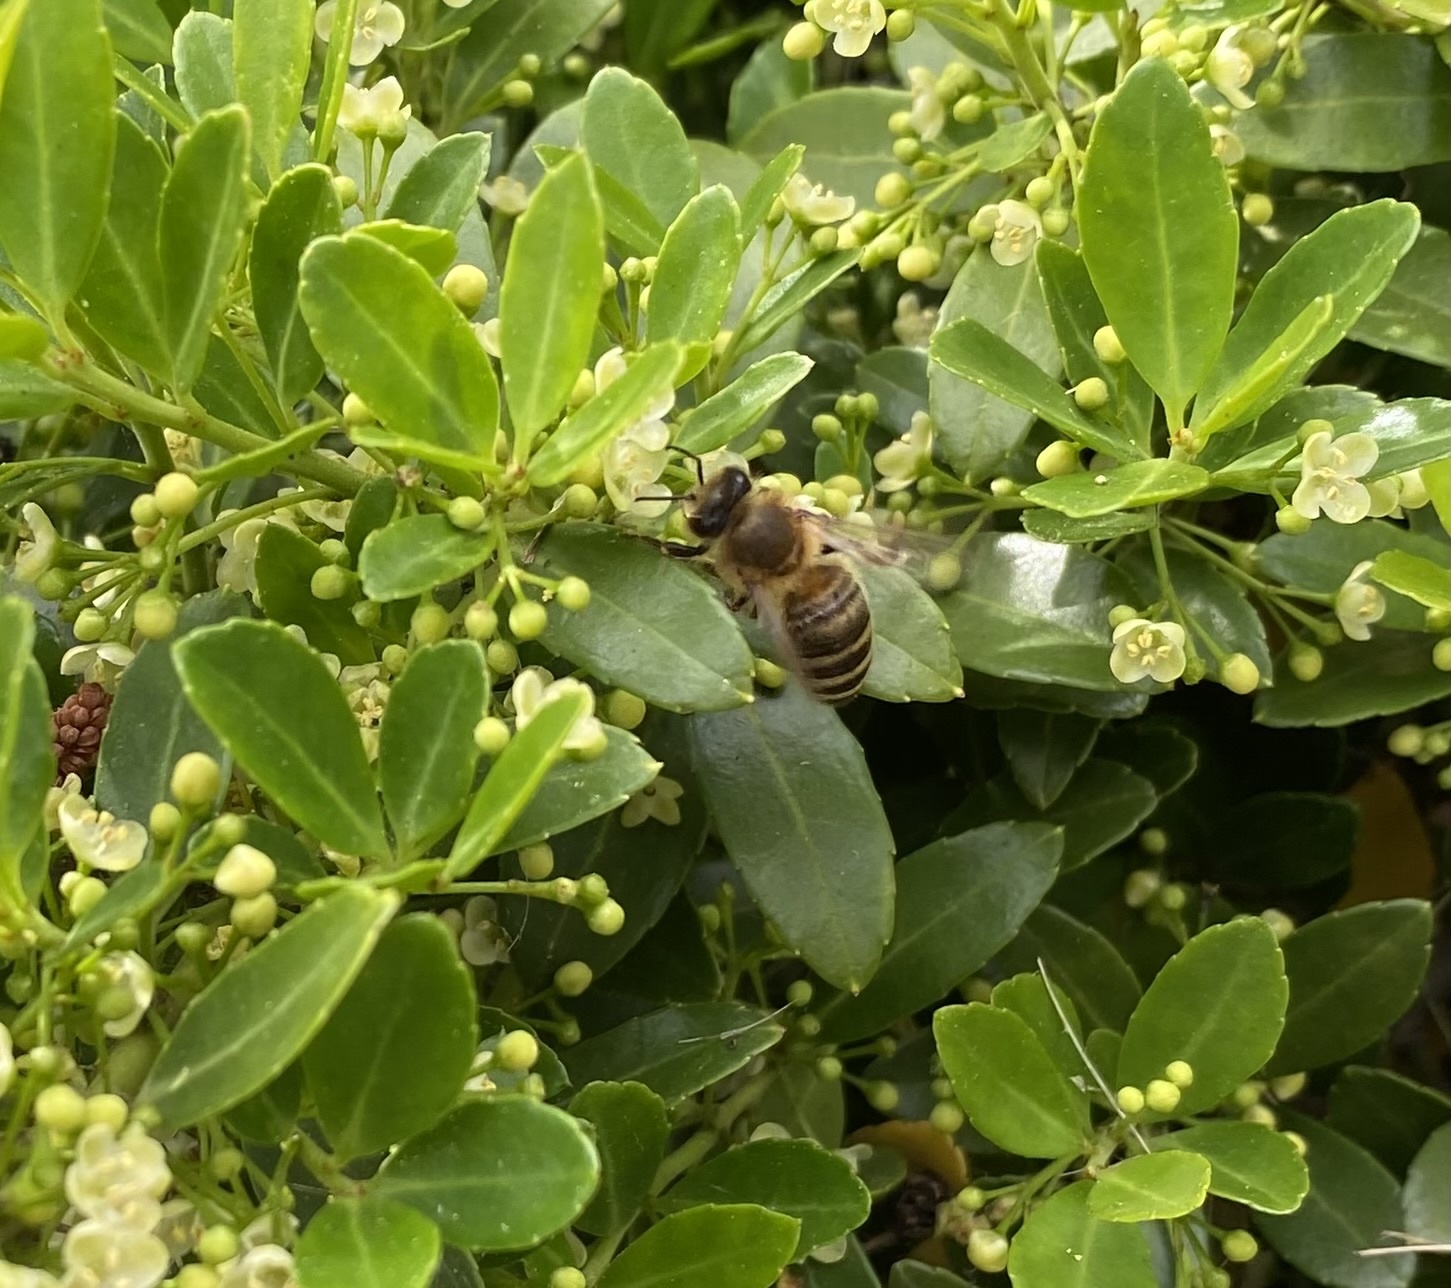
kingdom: Animalia
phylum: Arthropoda
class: Insecta
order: Hymenoptera
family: Apidae
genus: Apis
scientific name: Apis mellifera
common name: Honey bee
